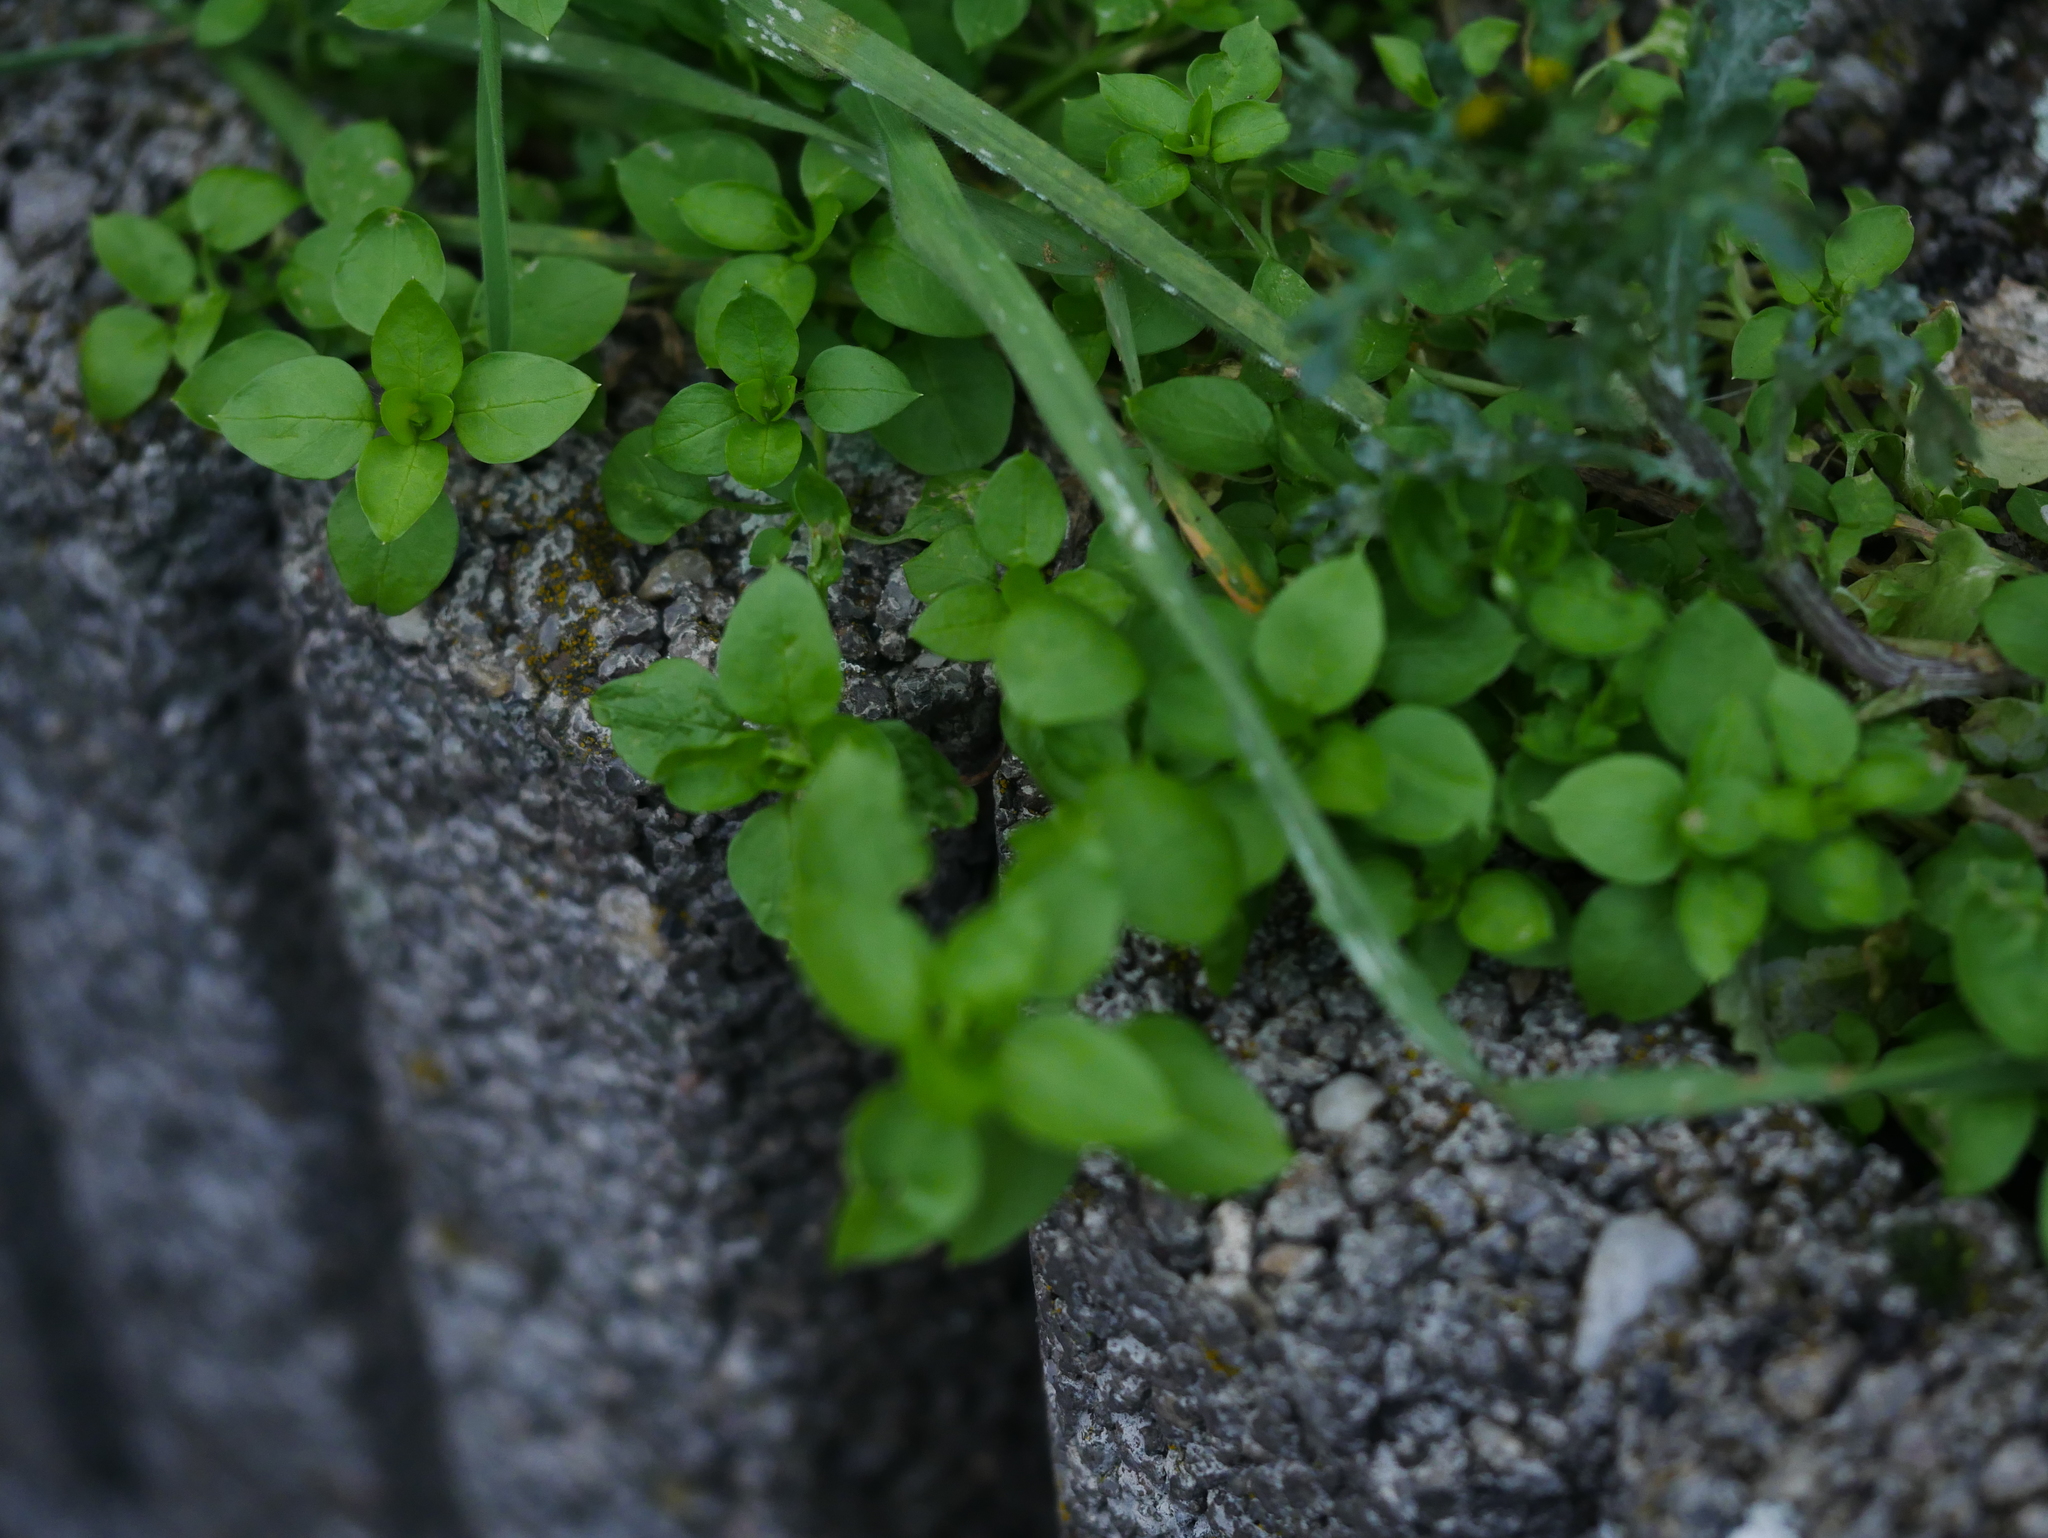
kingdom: Plantae
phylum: Tracheophyta
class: Magnoliopsida
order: Caryophyllales
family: Caryophyllaceae
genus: Stellaria
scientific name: Stellaria media
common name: Common chickweed
